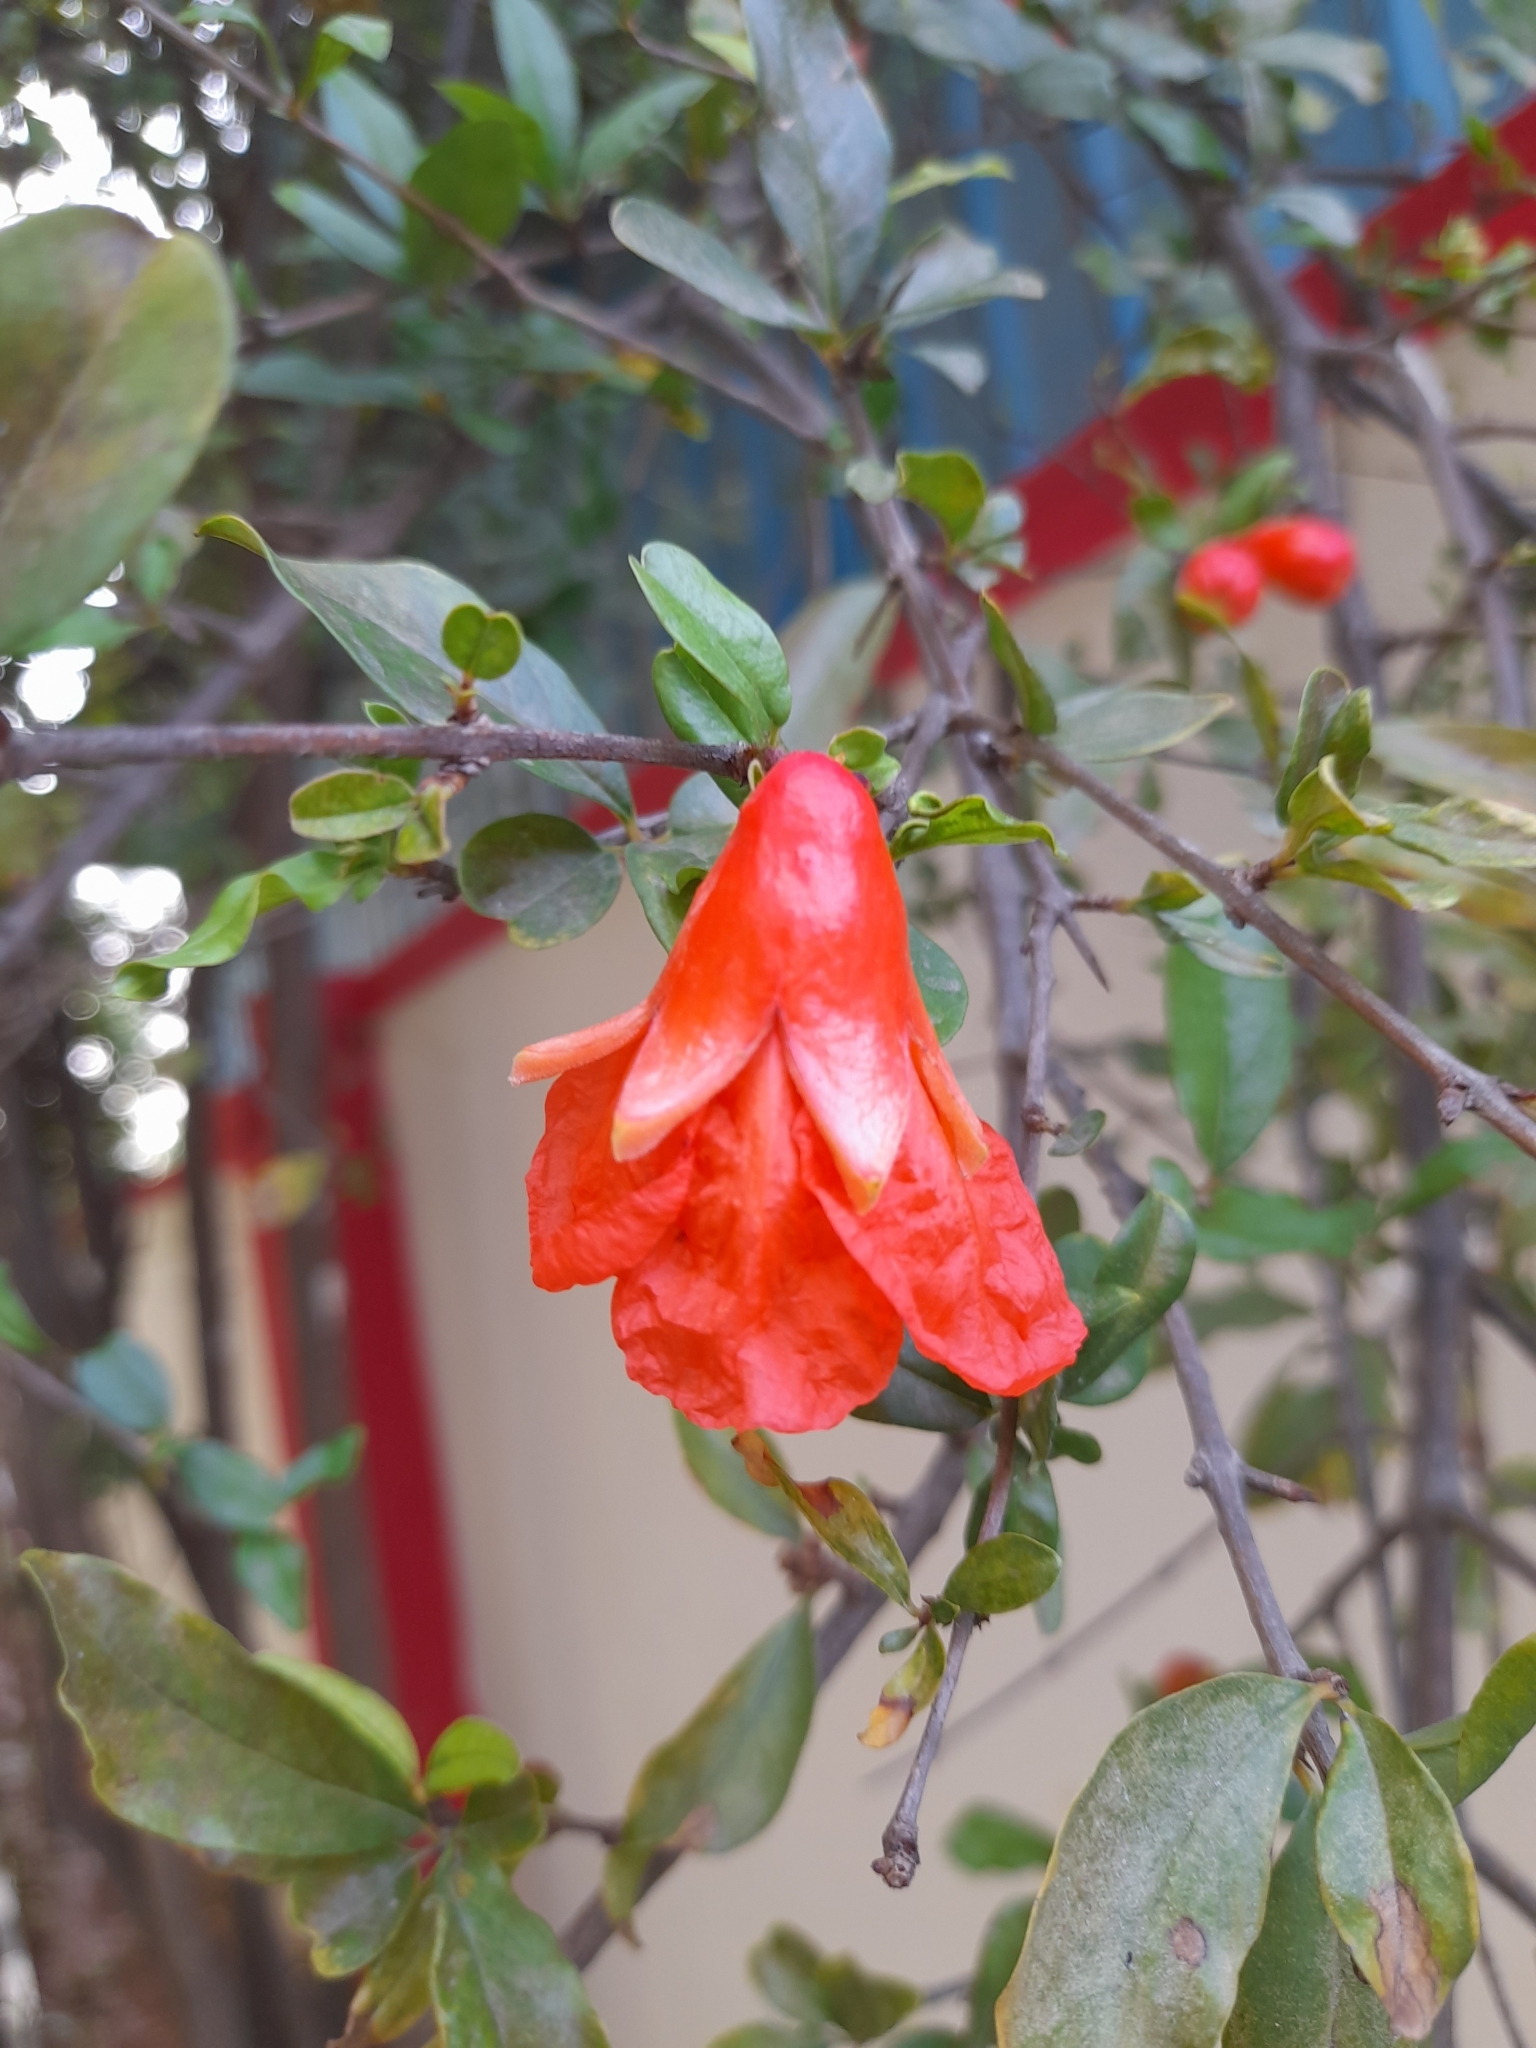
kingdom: Plantae
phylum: Tracheophyta
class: Magnoliopsida
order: Myrtales
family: Lythraceae
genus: Punica
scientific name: Punica granatum
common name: Pomegranate
